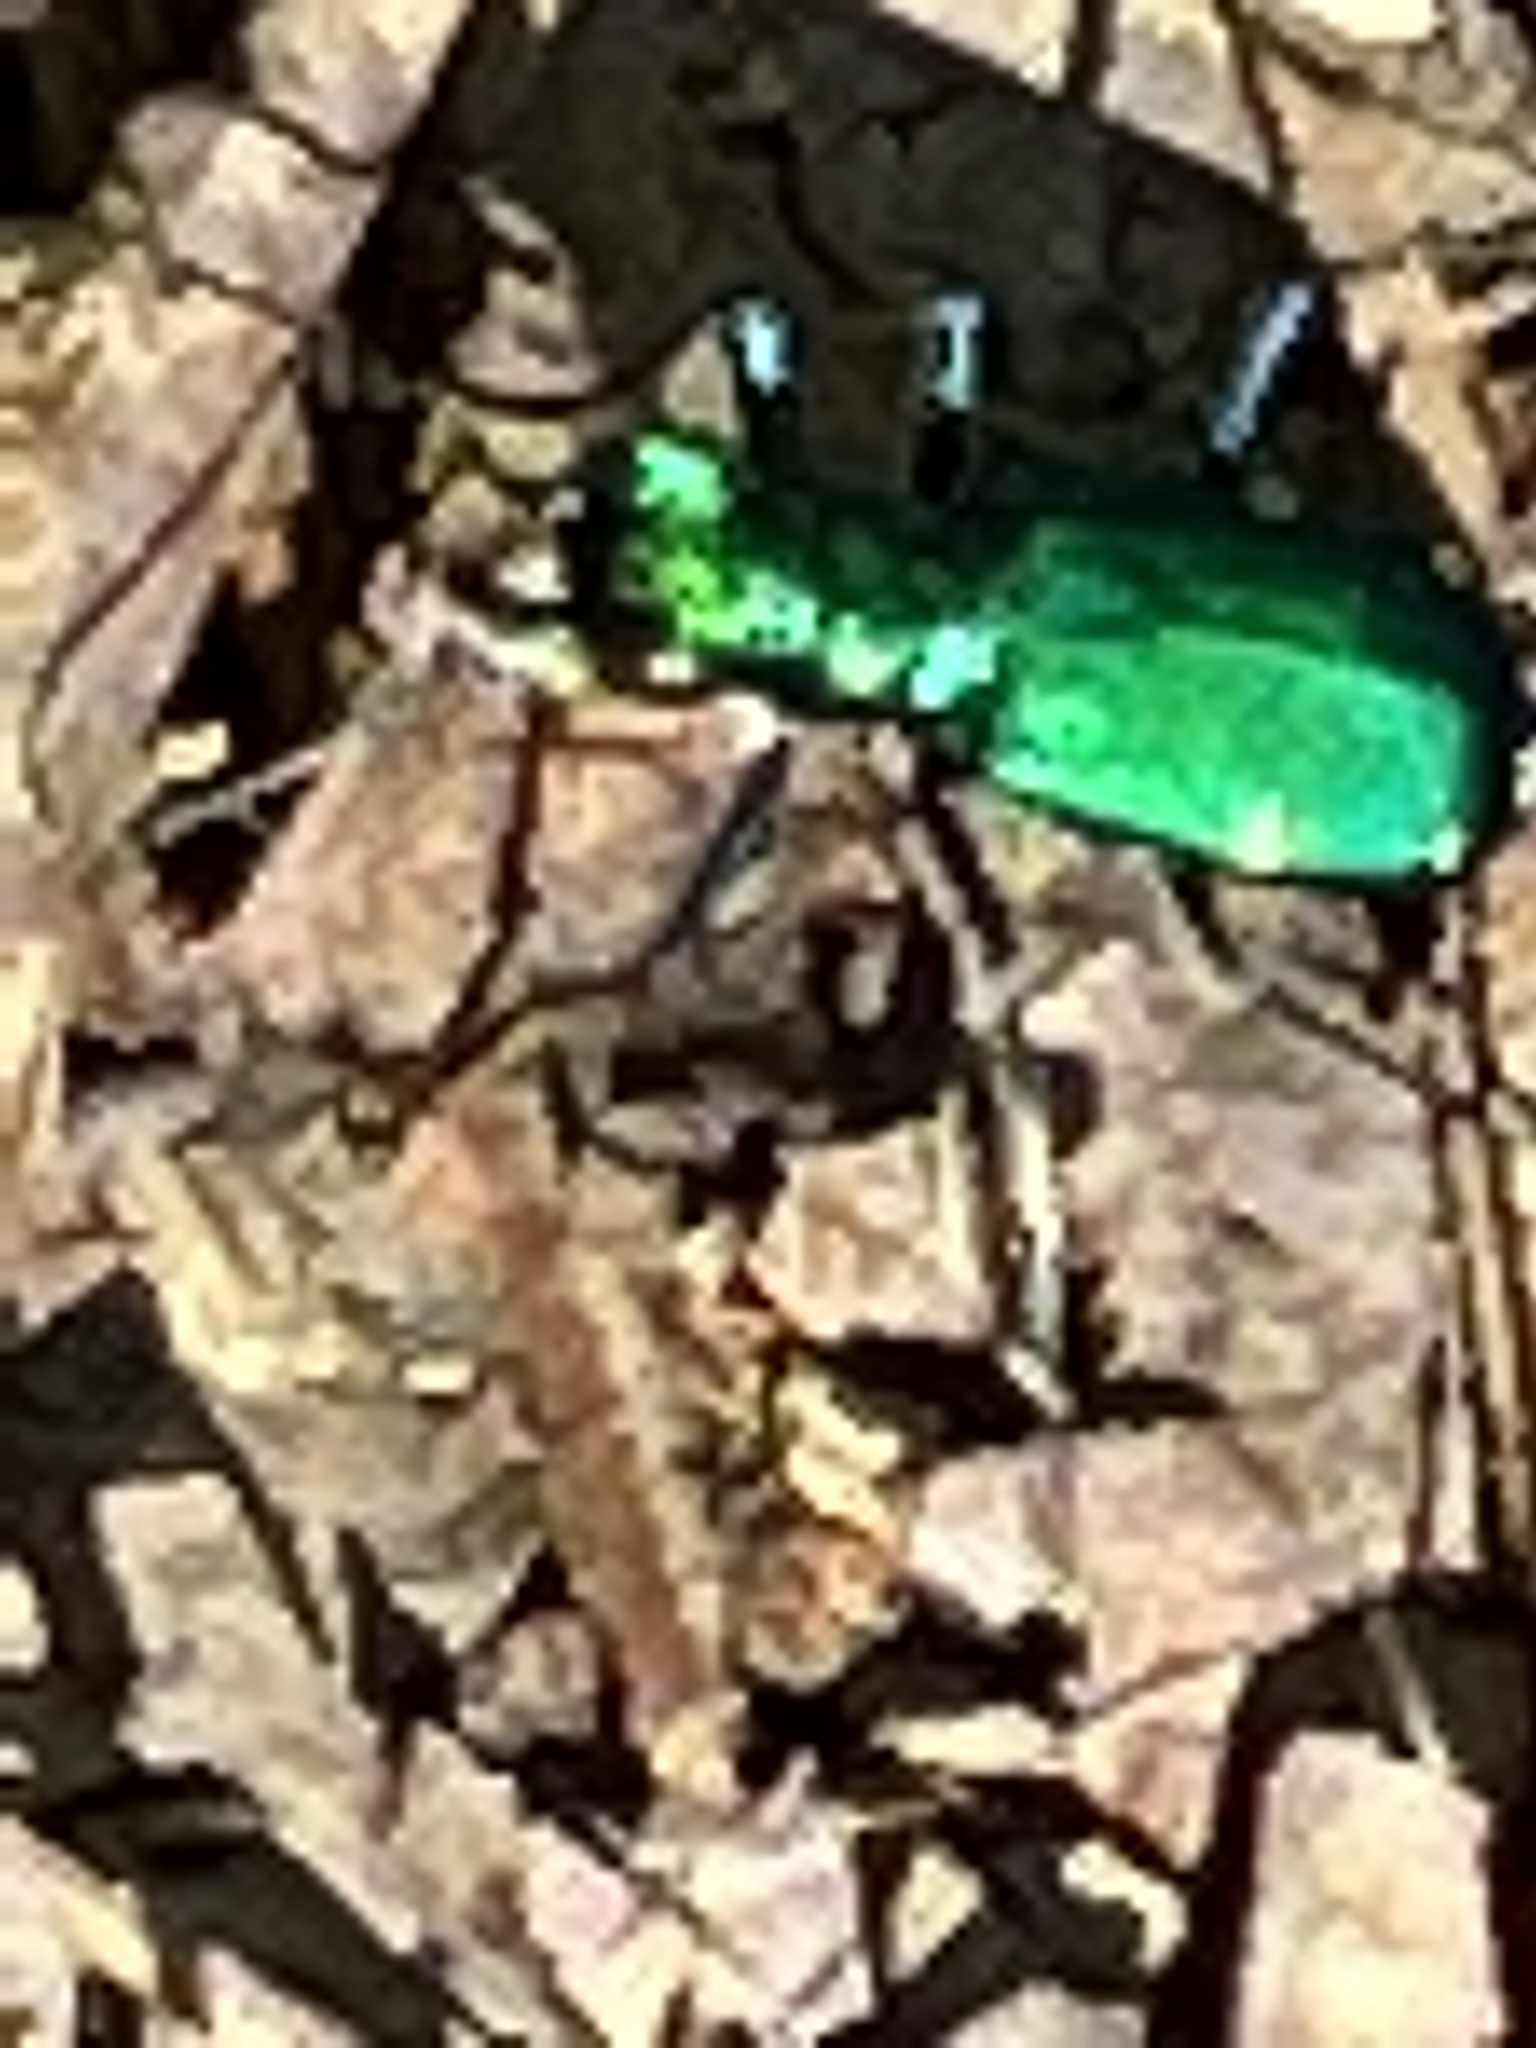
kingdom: Animalia
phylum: Arthropoda
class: Insecta
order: Coleoptera
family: Carabidae
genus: Cicindela
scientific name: Cicindela sexguttata
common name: Six-spotted tiger beetle
